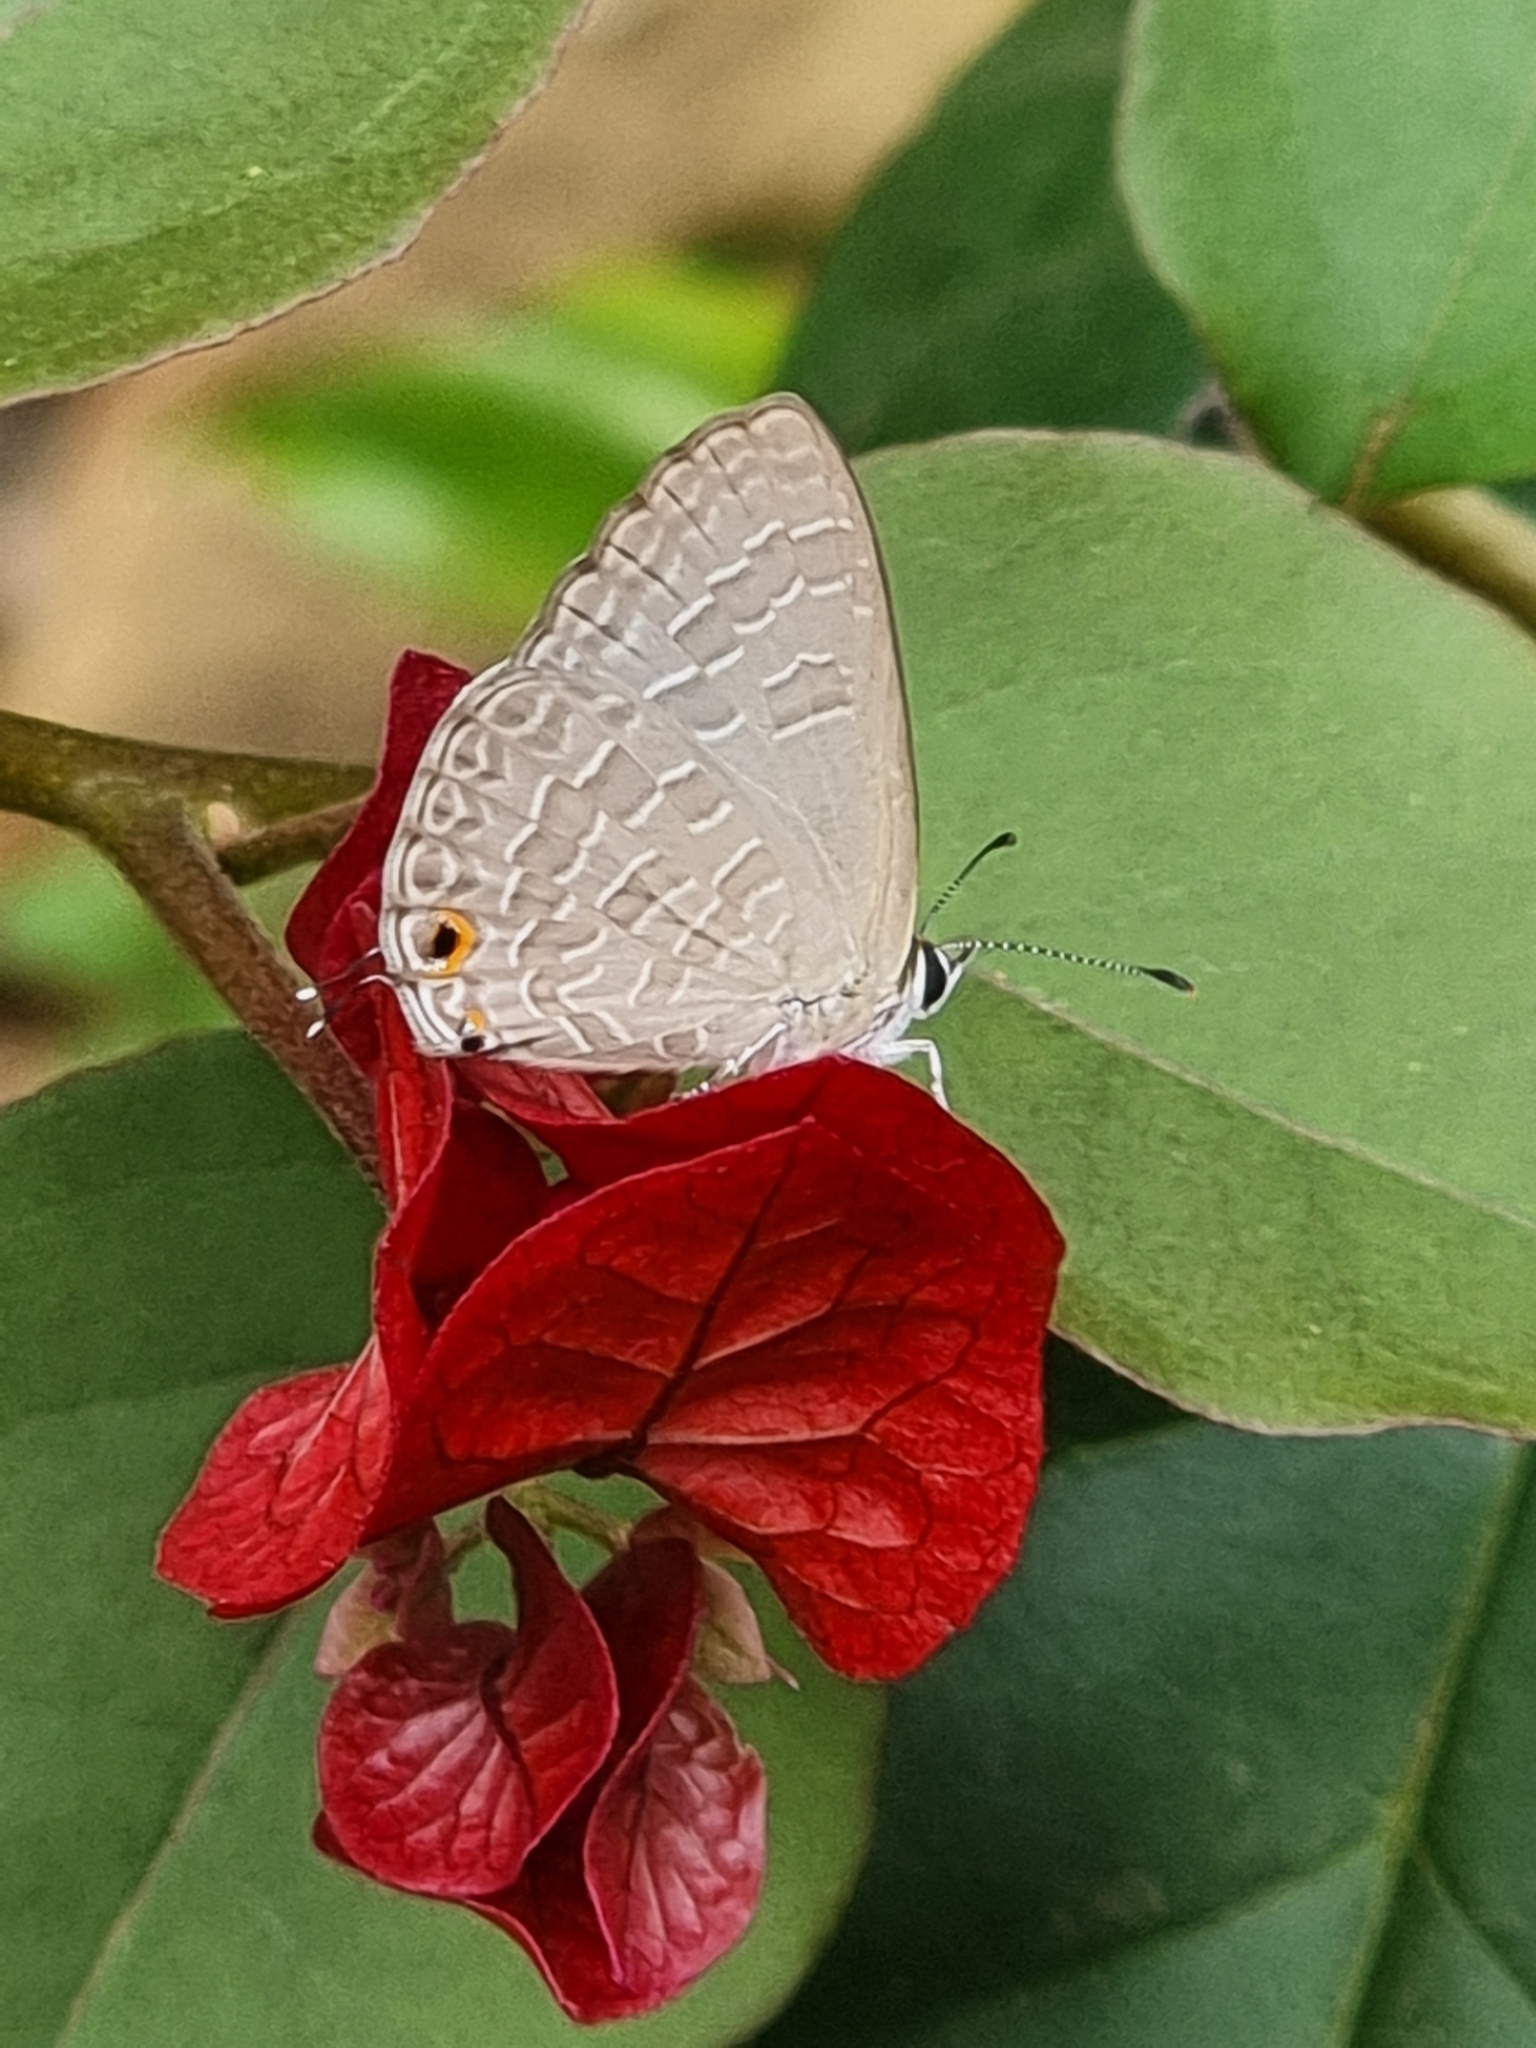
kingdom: Animalia
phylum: Arthropoda
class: Insecta
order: Lepidoptera
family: Lycaenidae
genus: Jamides
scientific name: Jamides phaseli
